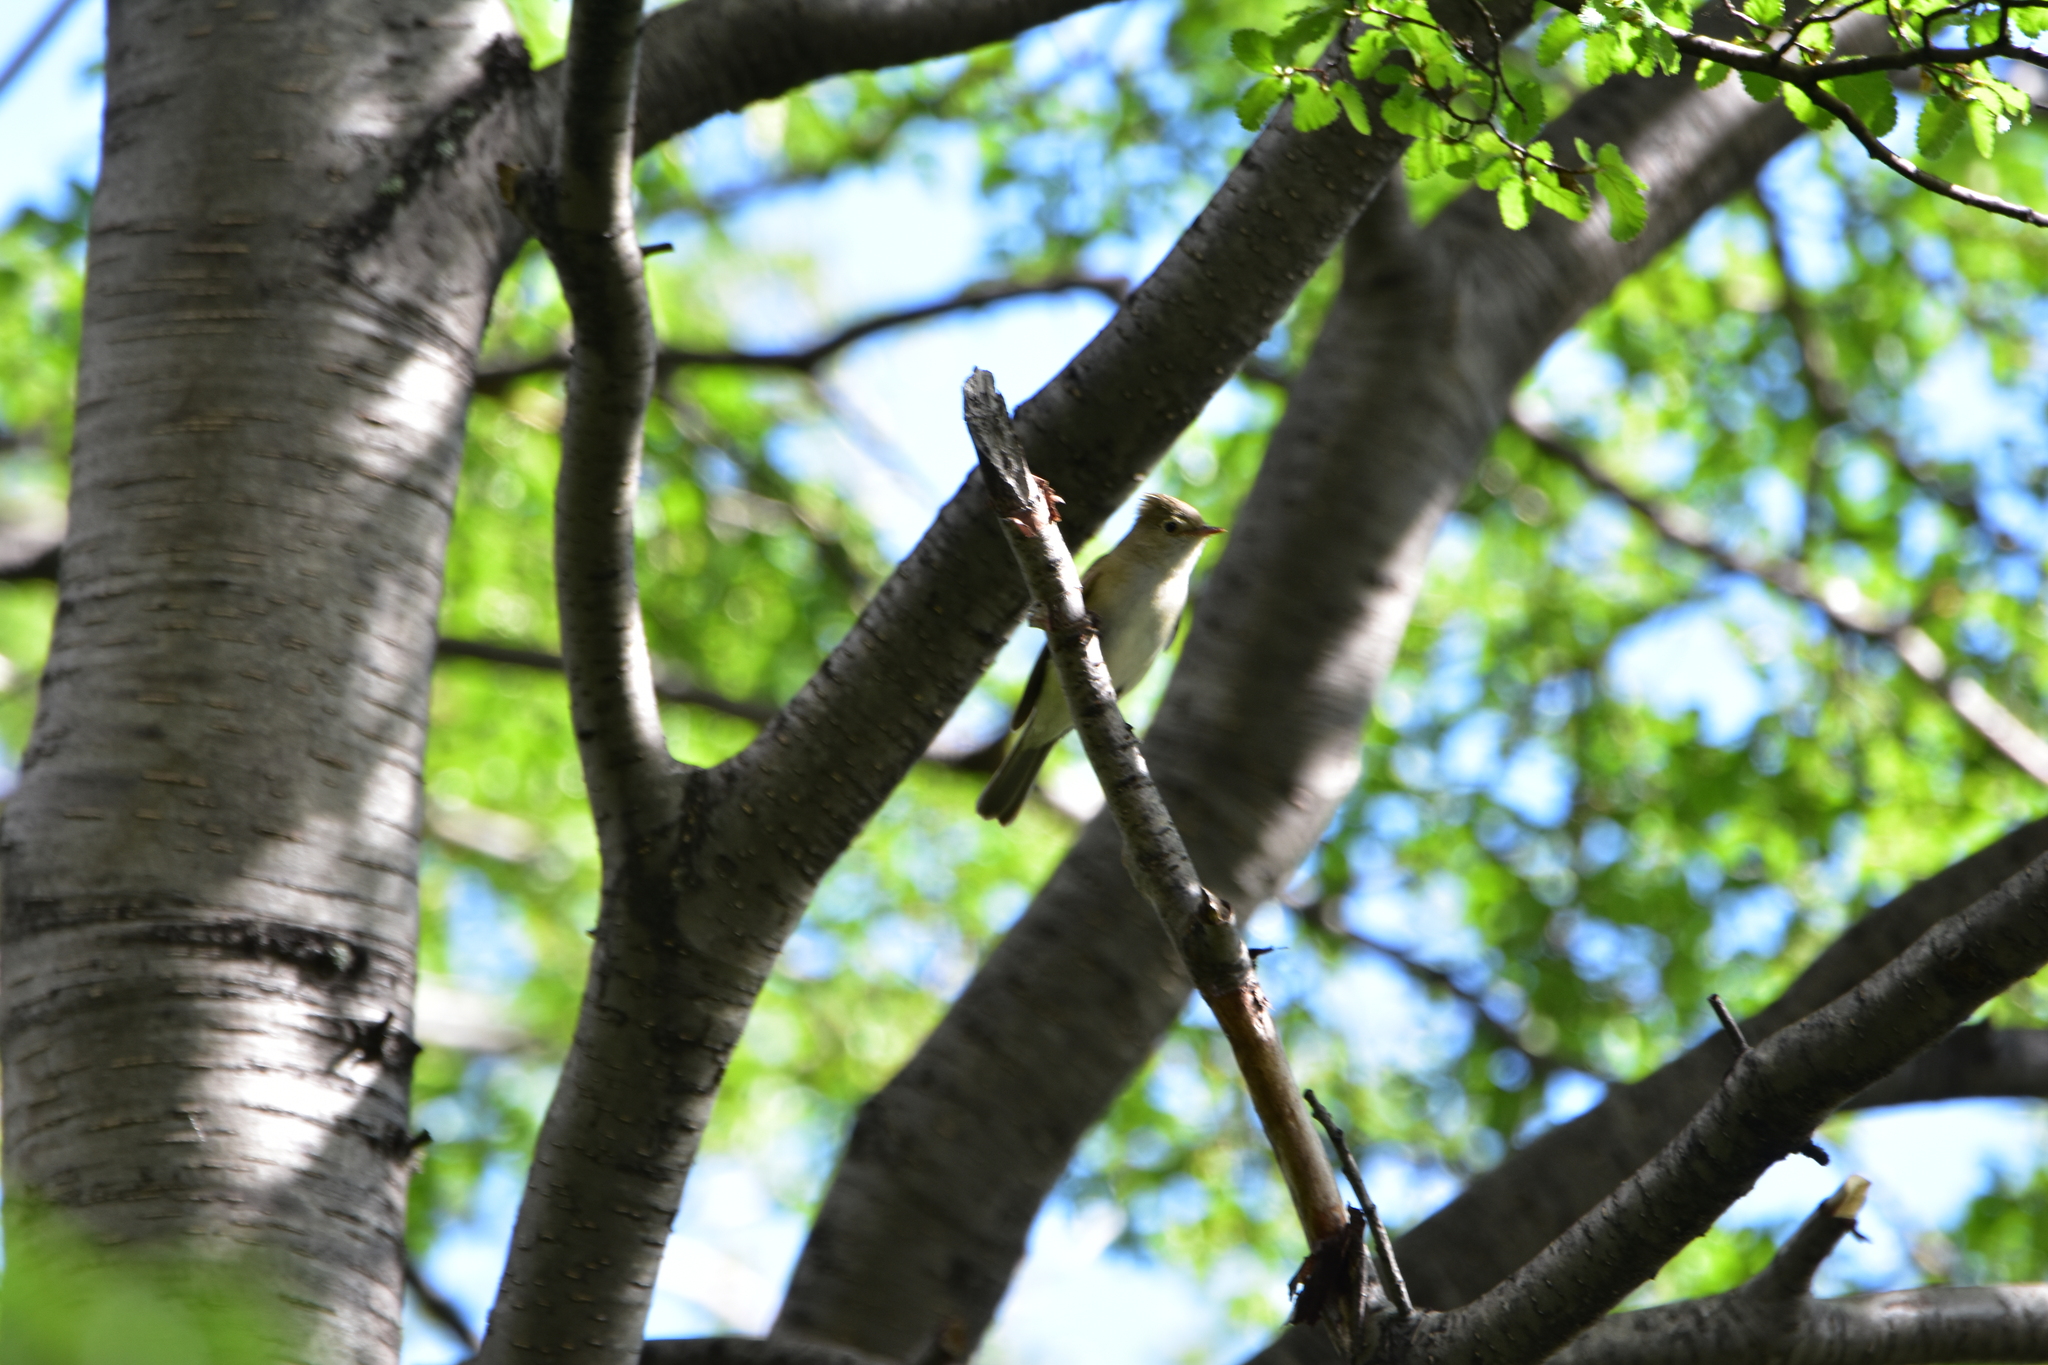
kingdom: Animalia
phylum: Chordata
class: Aves
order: Passeriformes
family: Tyrannidae
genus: Elaenia
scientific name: Elaenia albiceps
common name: White-crested elaenia
